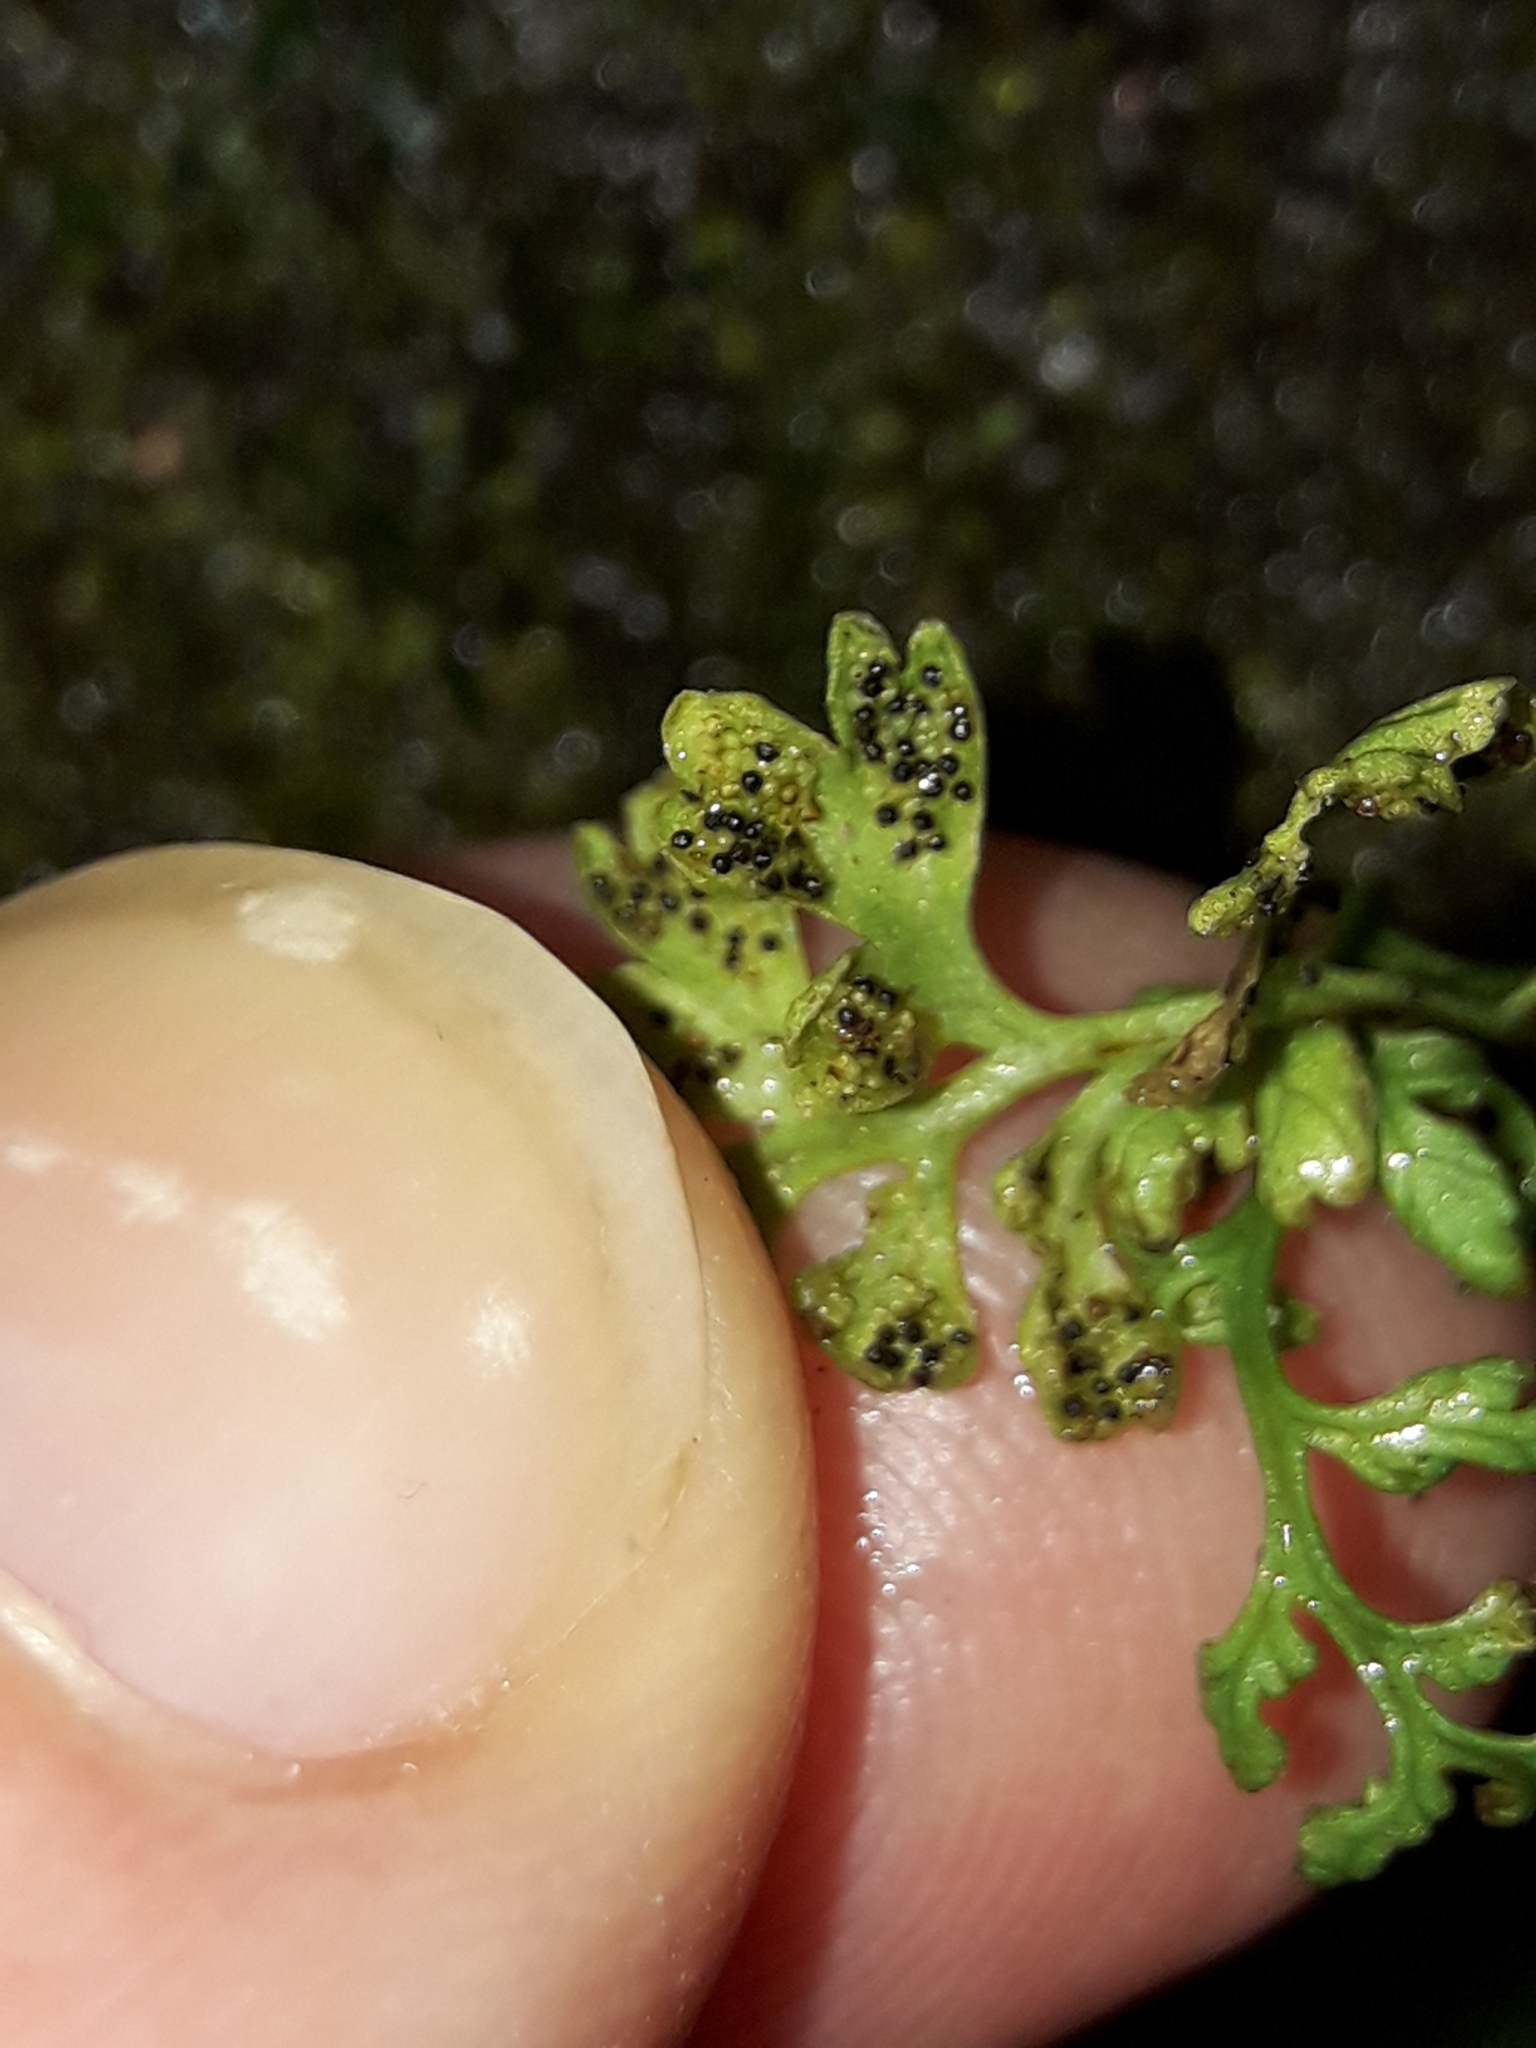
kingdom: Plantae
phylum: Tracheophyta
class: Polypodiopsida
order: Polypodiales
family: Pteridaceae
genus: Anogramma
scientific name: Anogramma leptophylla
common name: Jersey fern
